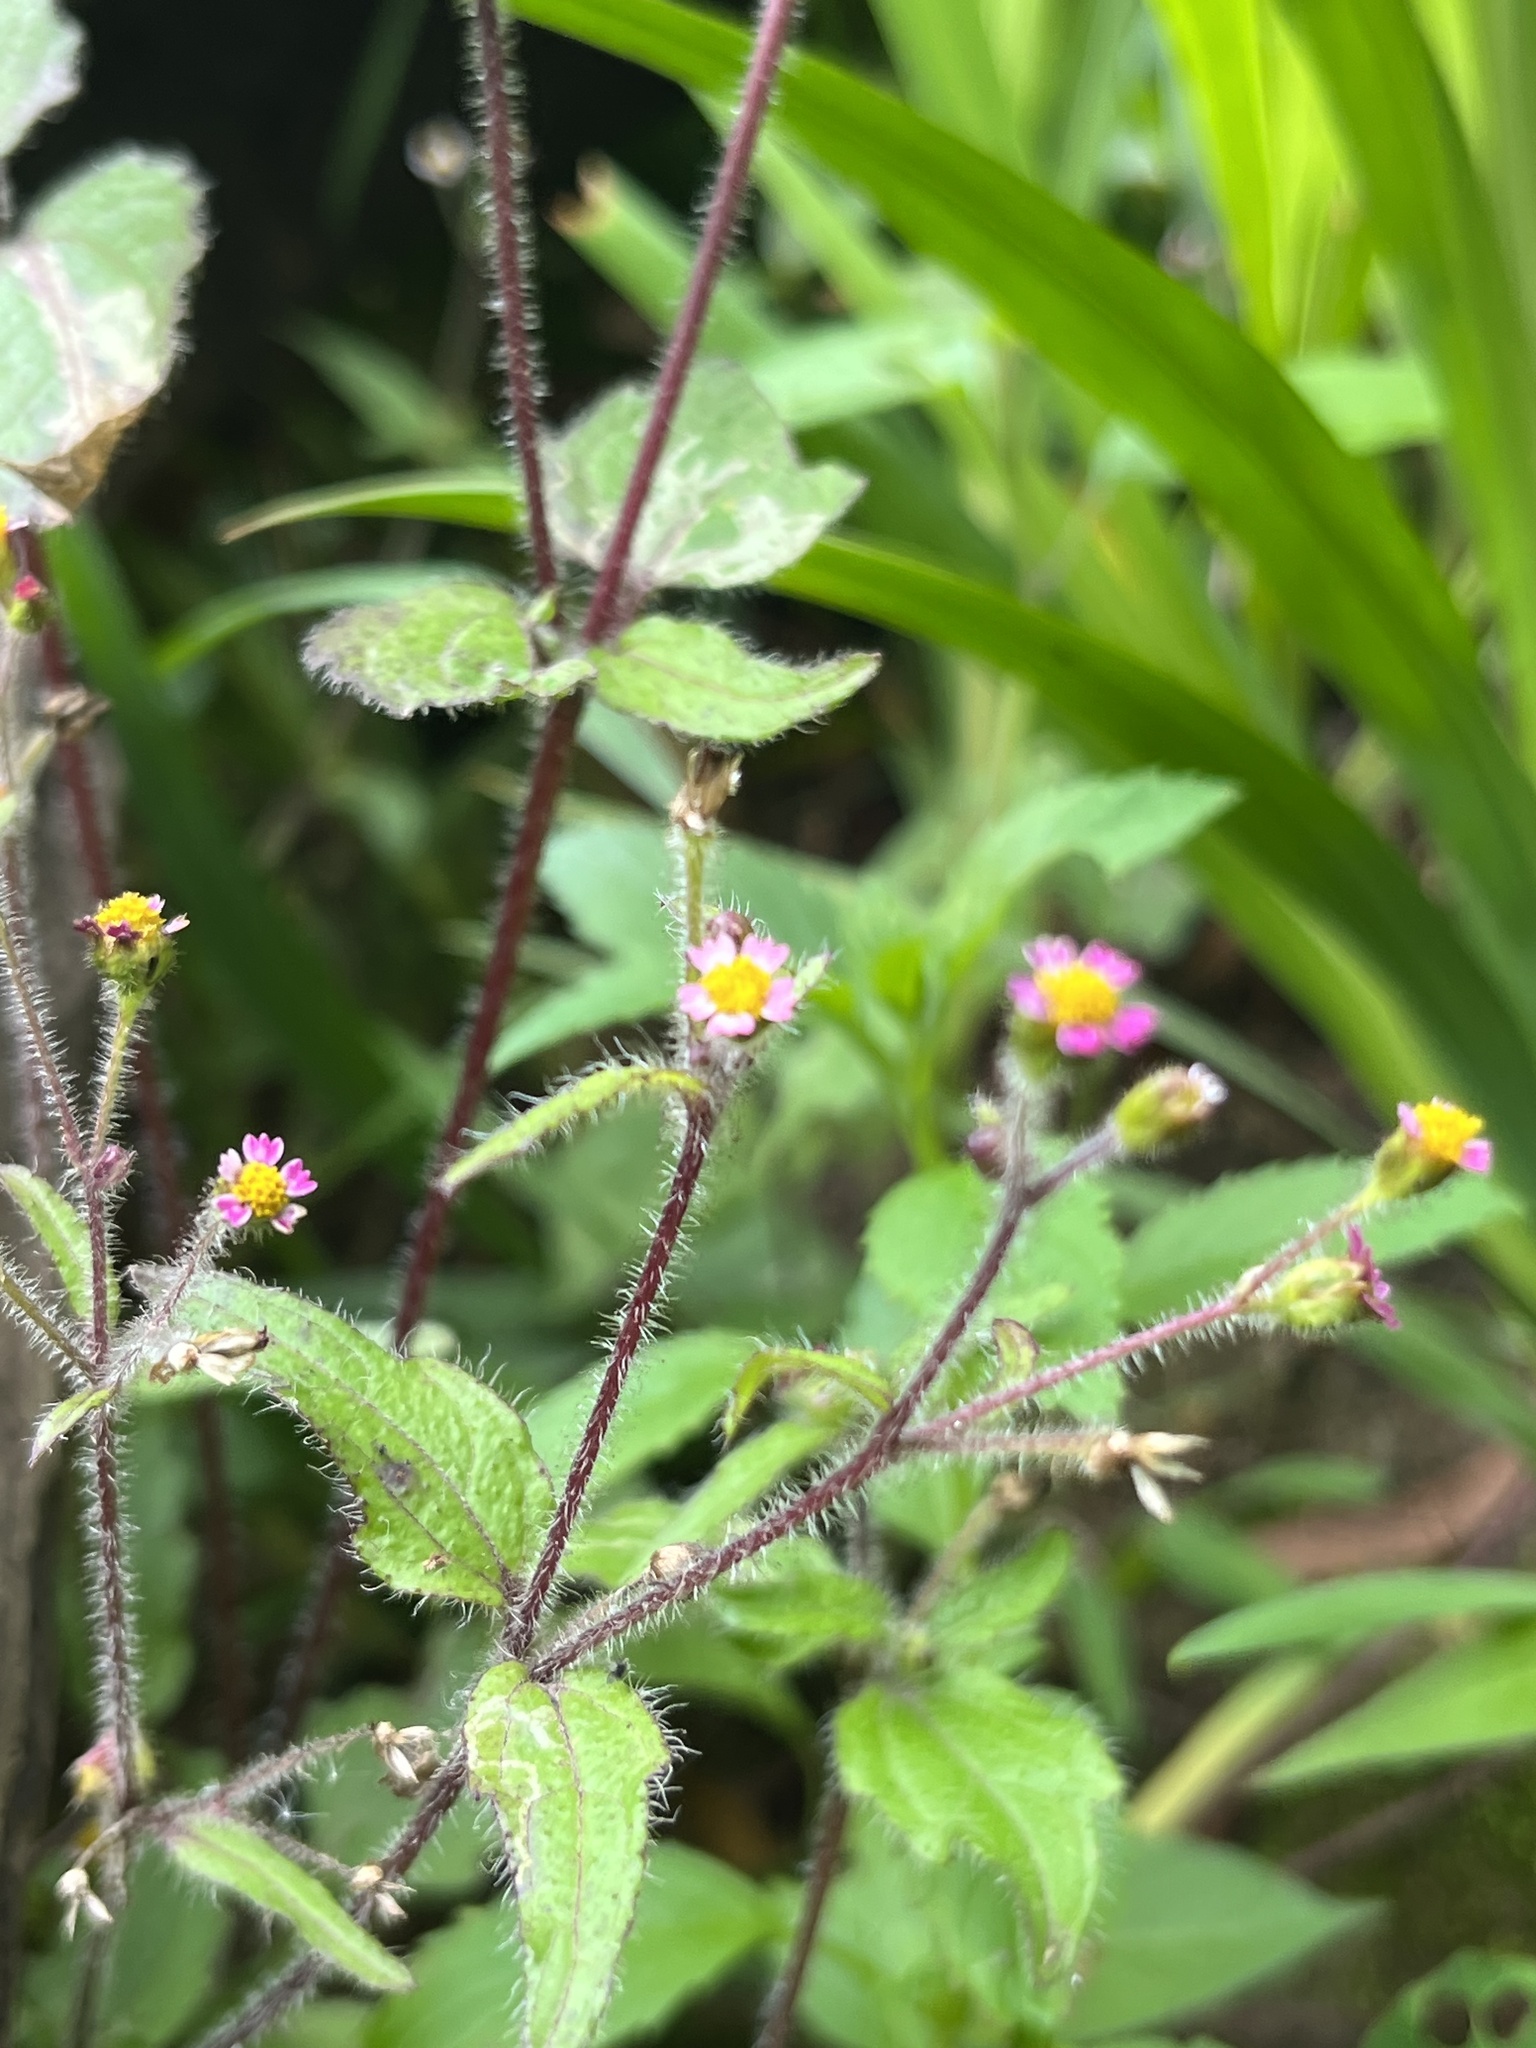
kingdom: Plantae
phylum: Tracheophyta
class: Magnoliopsida
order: Asterales
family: Asteraceae
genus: Galinsoga
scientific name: Galinsoga quadriradiata
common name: Shaggy soldier
